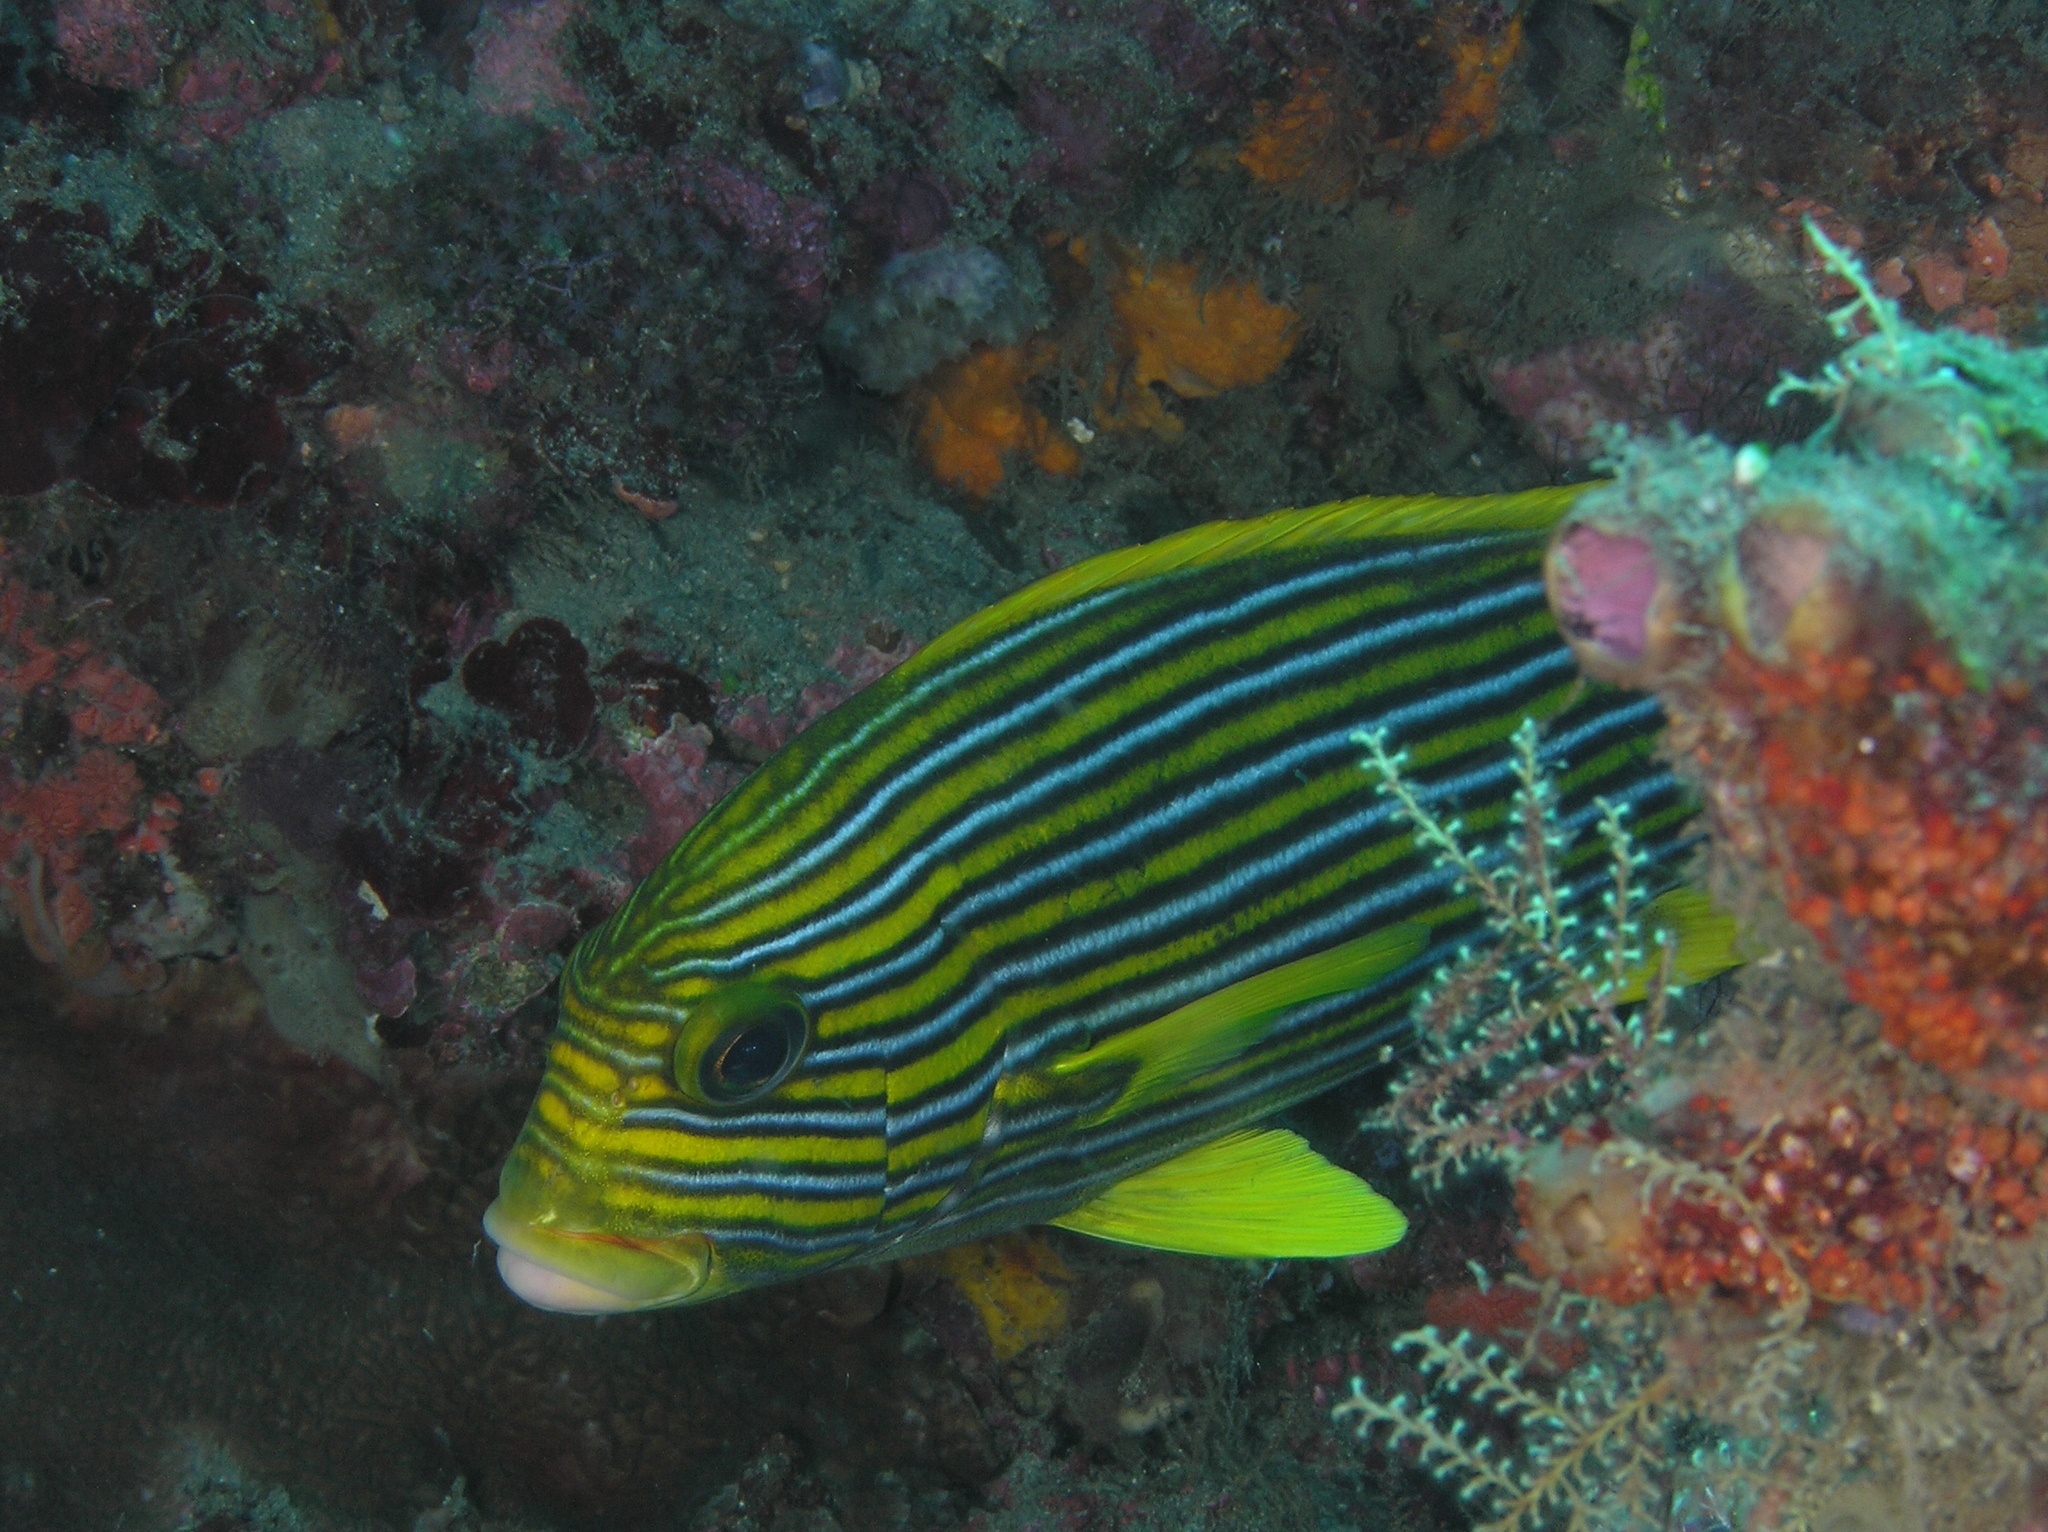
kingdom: Animalia
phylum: Chordata
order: Perciformes
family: Haemulidae
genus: Plectorhinchus
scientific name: Plectorhinchus polytaenia
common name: Ribboned sweetlips
